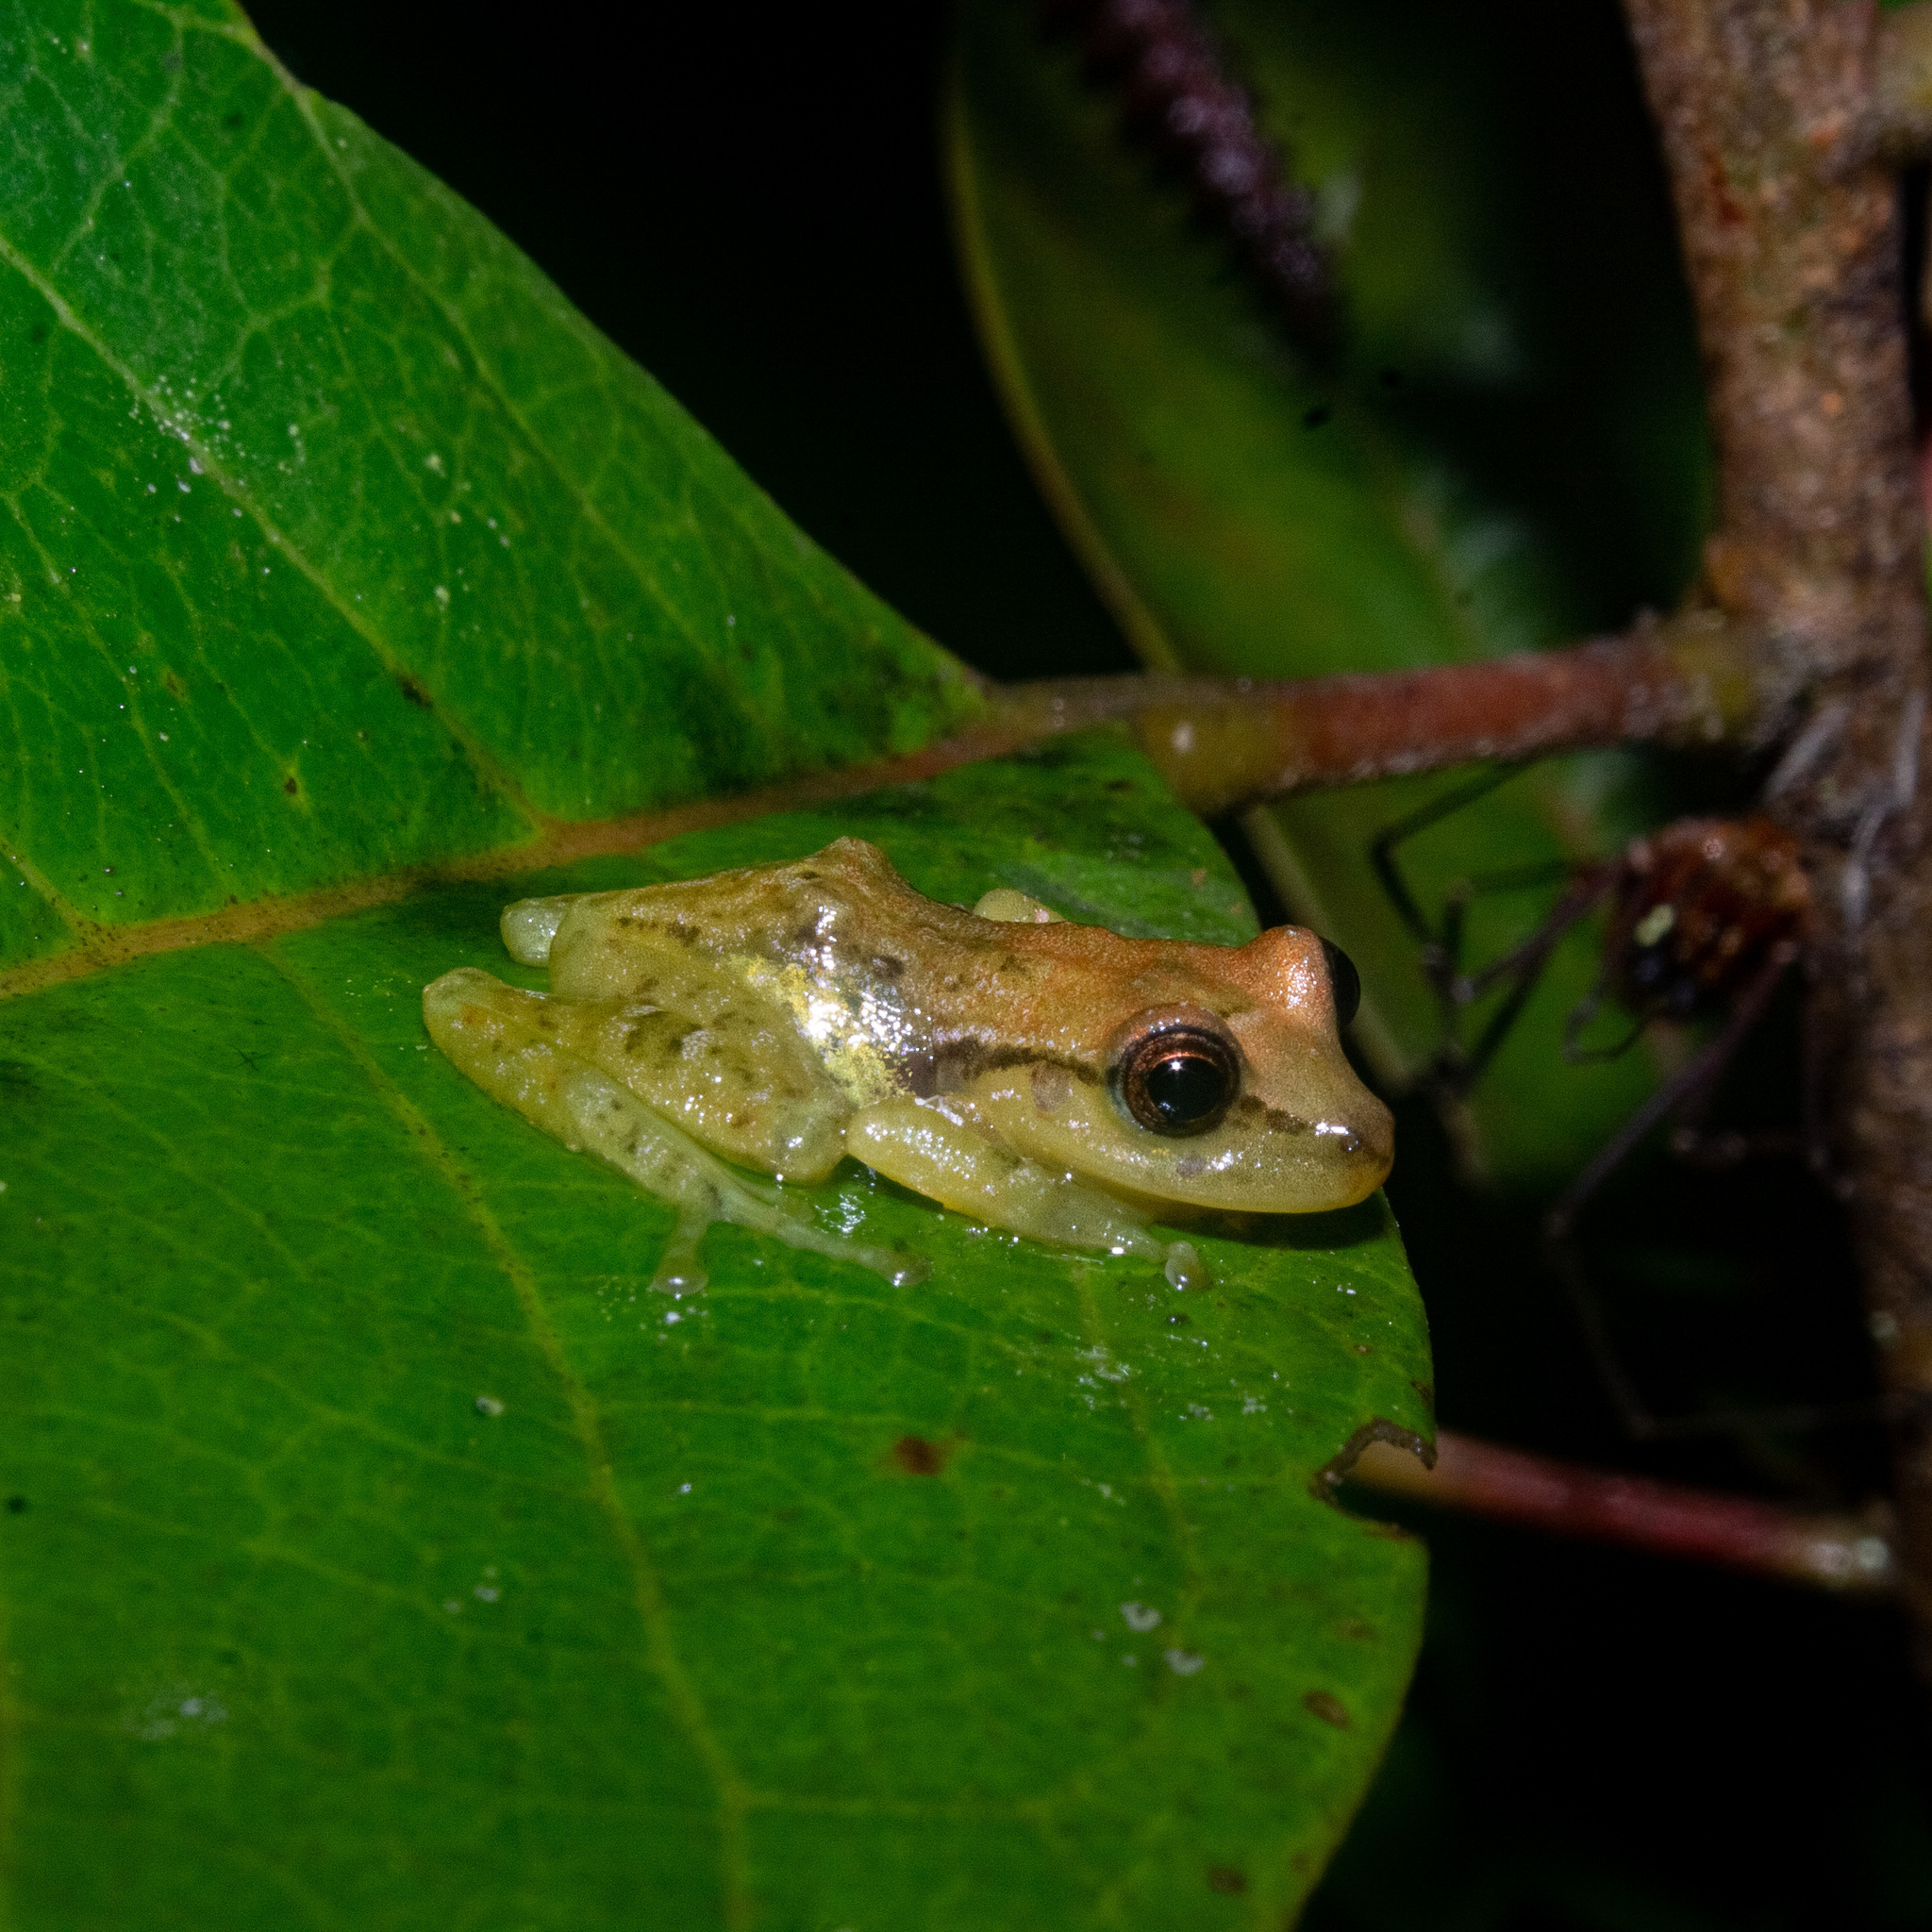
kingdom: Animalia
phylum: Chordata
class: Amphibia
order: Anura
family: Craugastoridae
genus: Tachiramantis
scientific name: Tachiramantis
